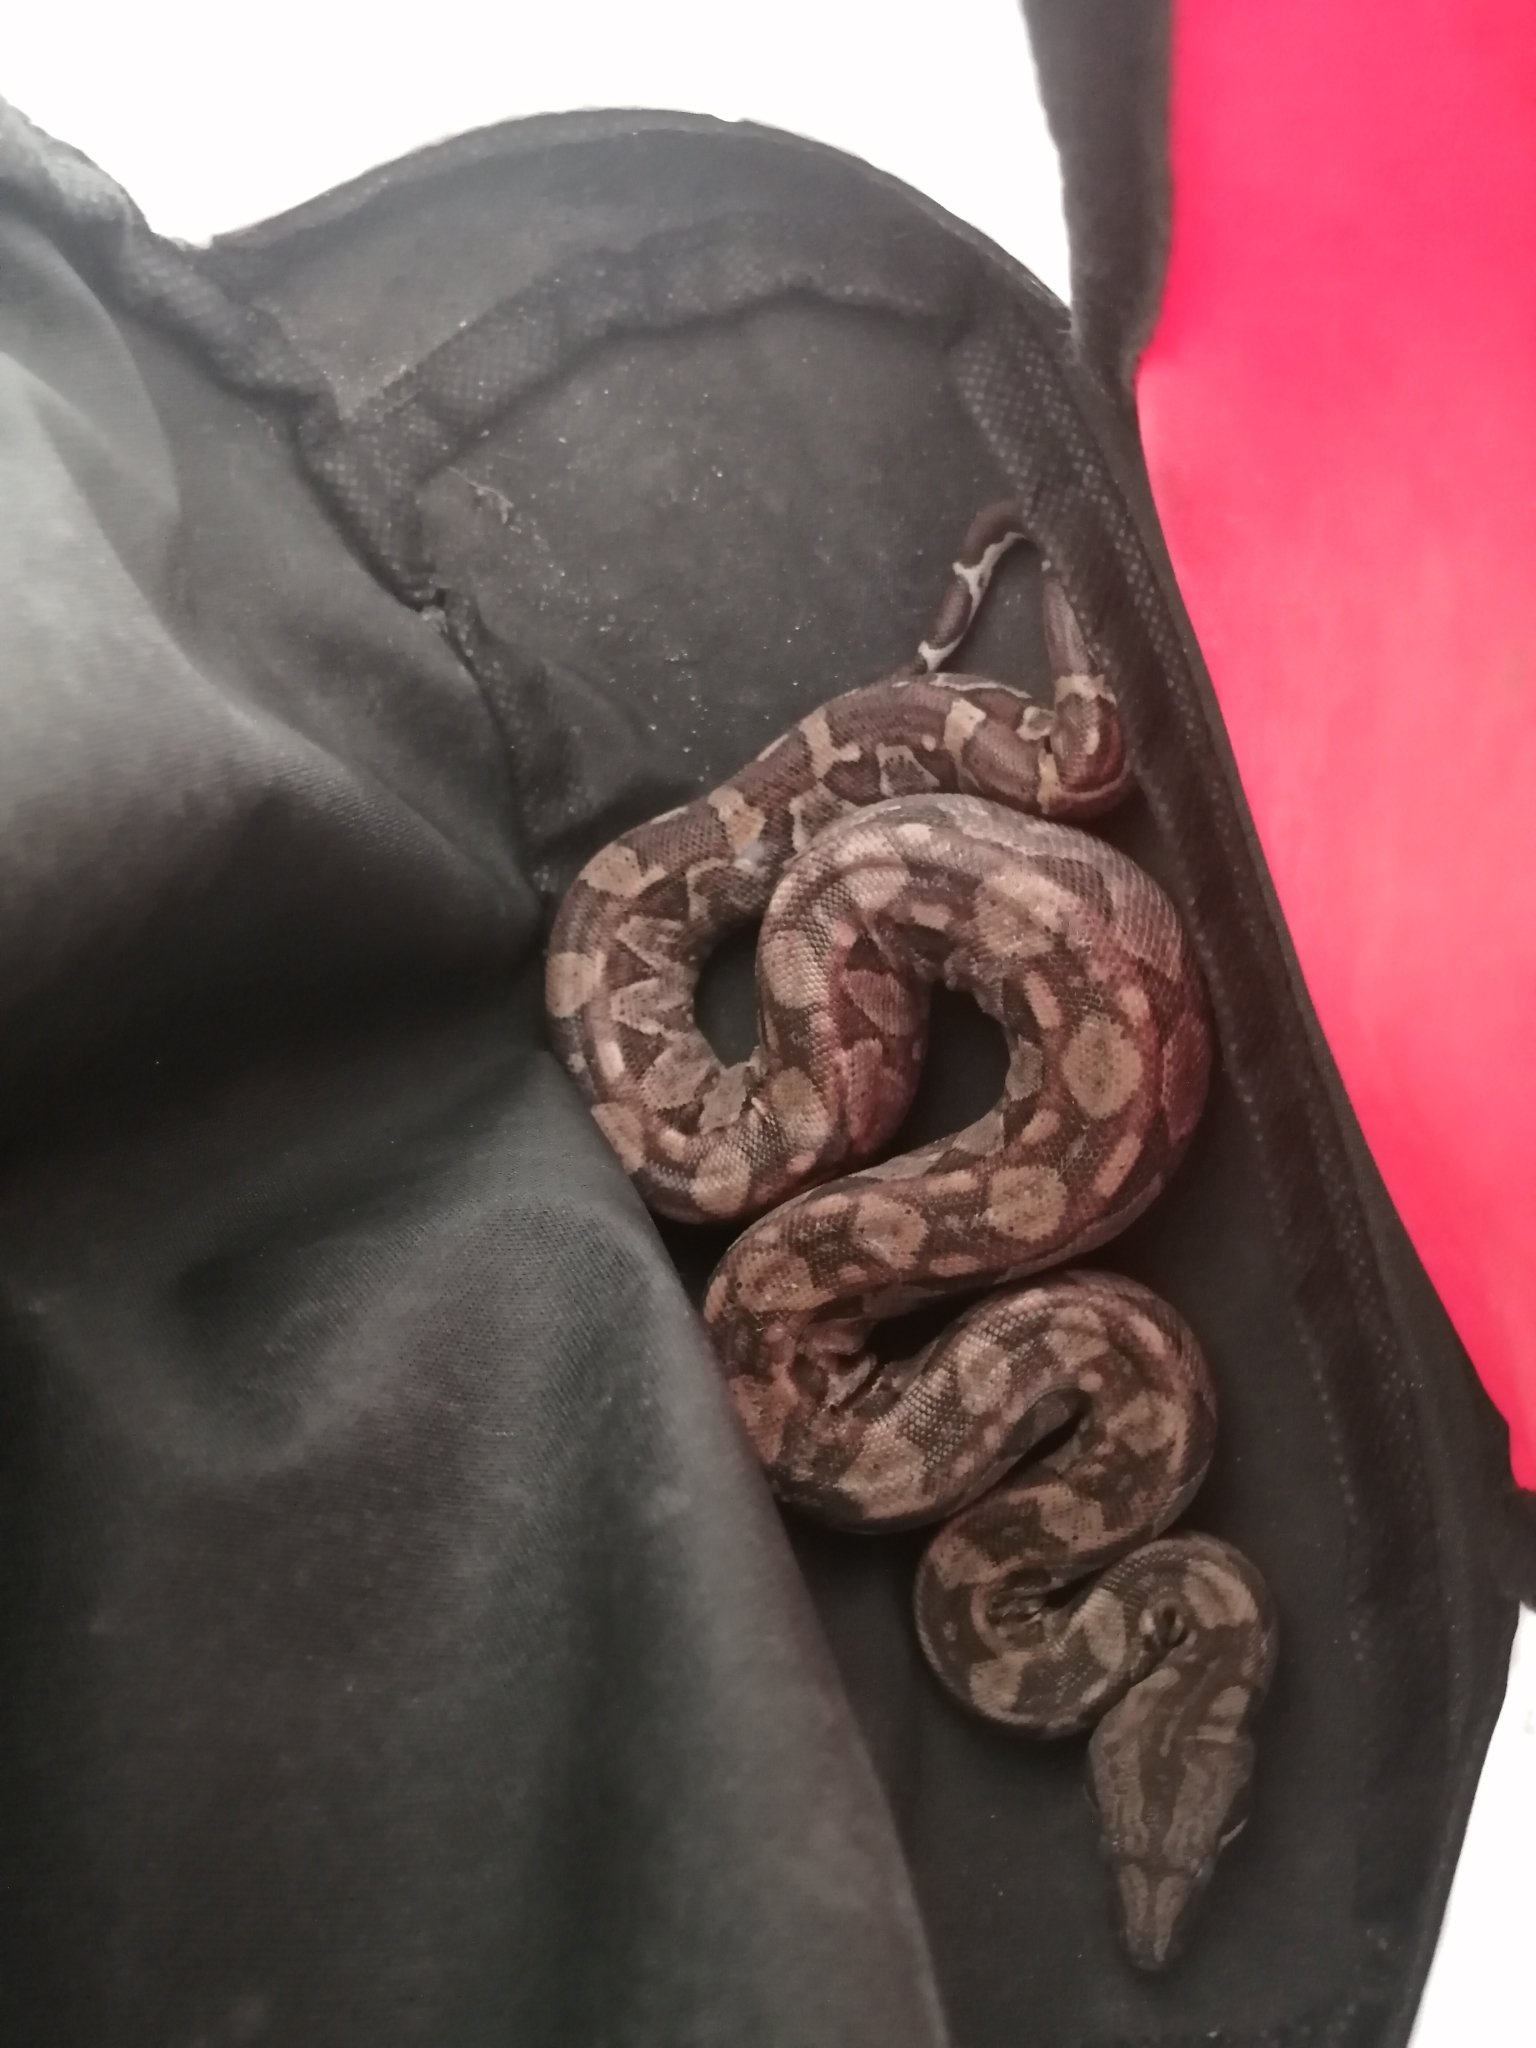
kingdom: Animalia
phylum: Chordata
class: Squamata
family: Boidae
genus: Boa
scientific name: Boa imperator
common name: Central american boa
